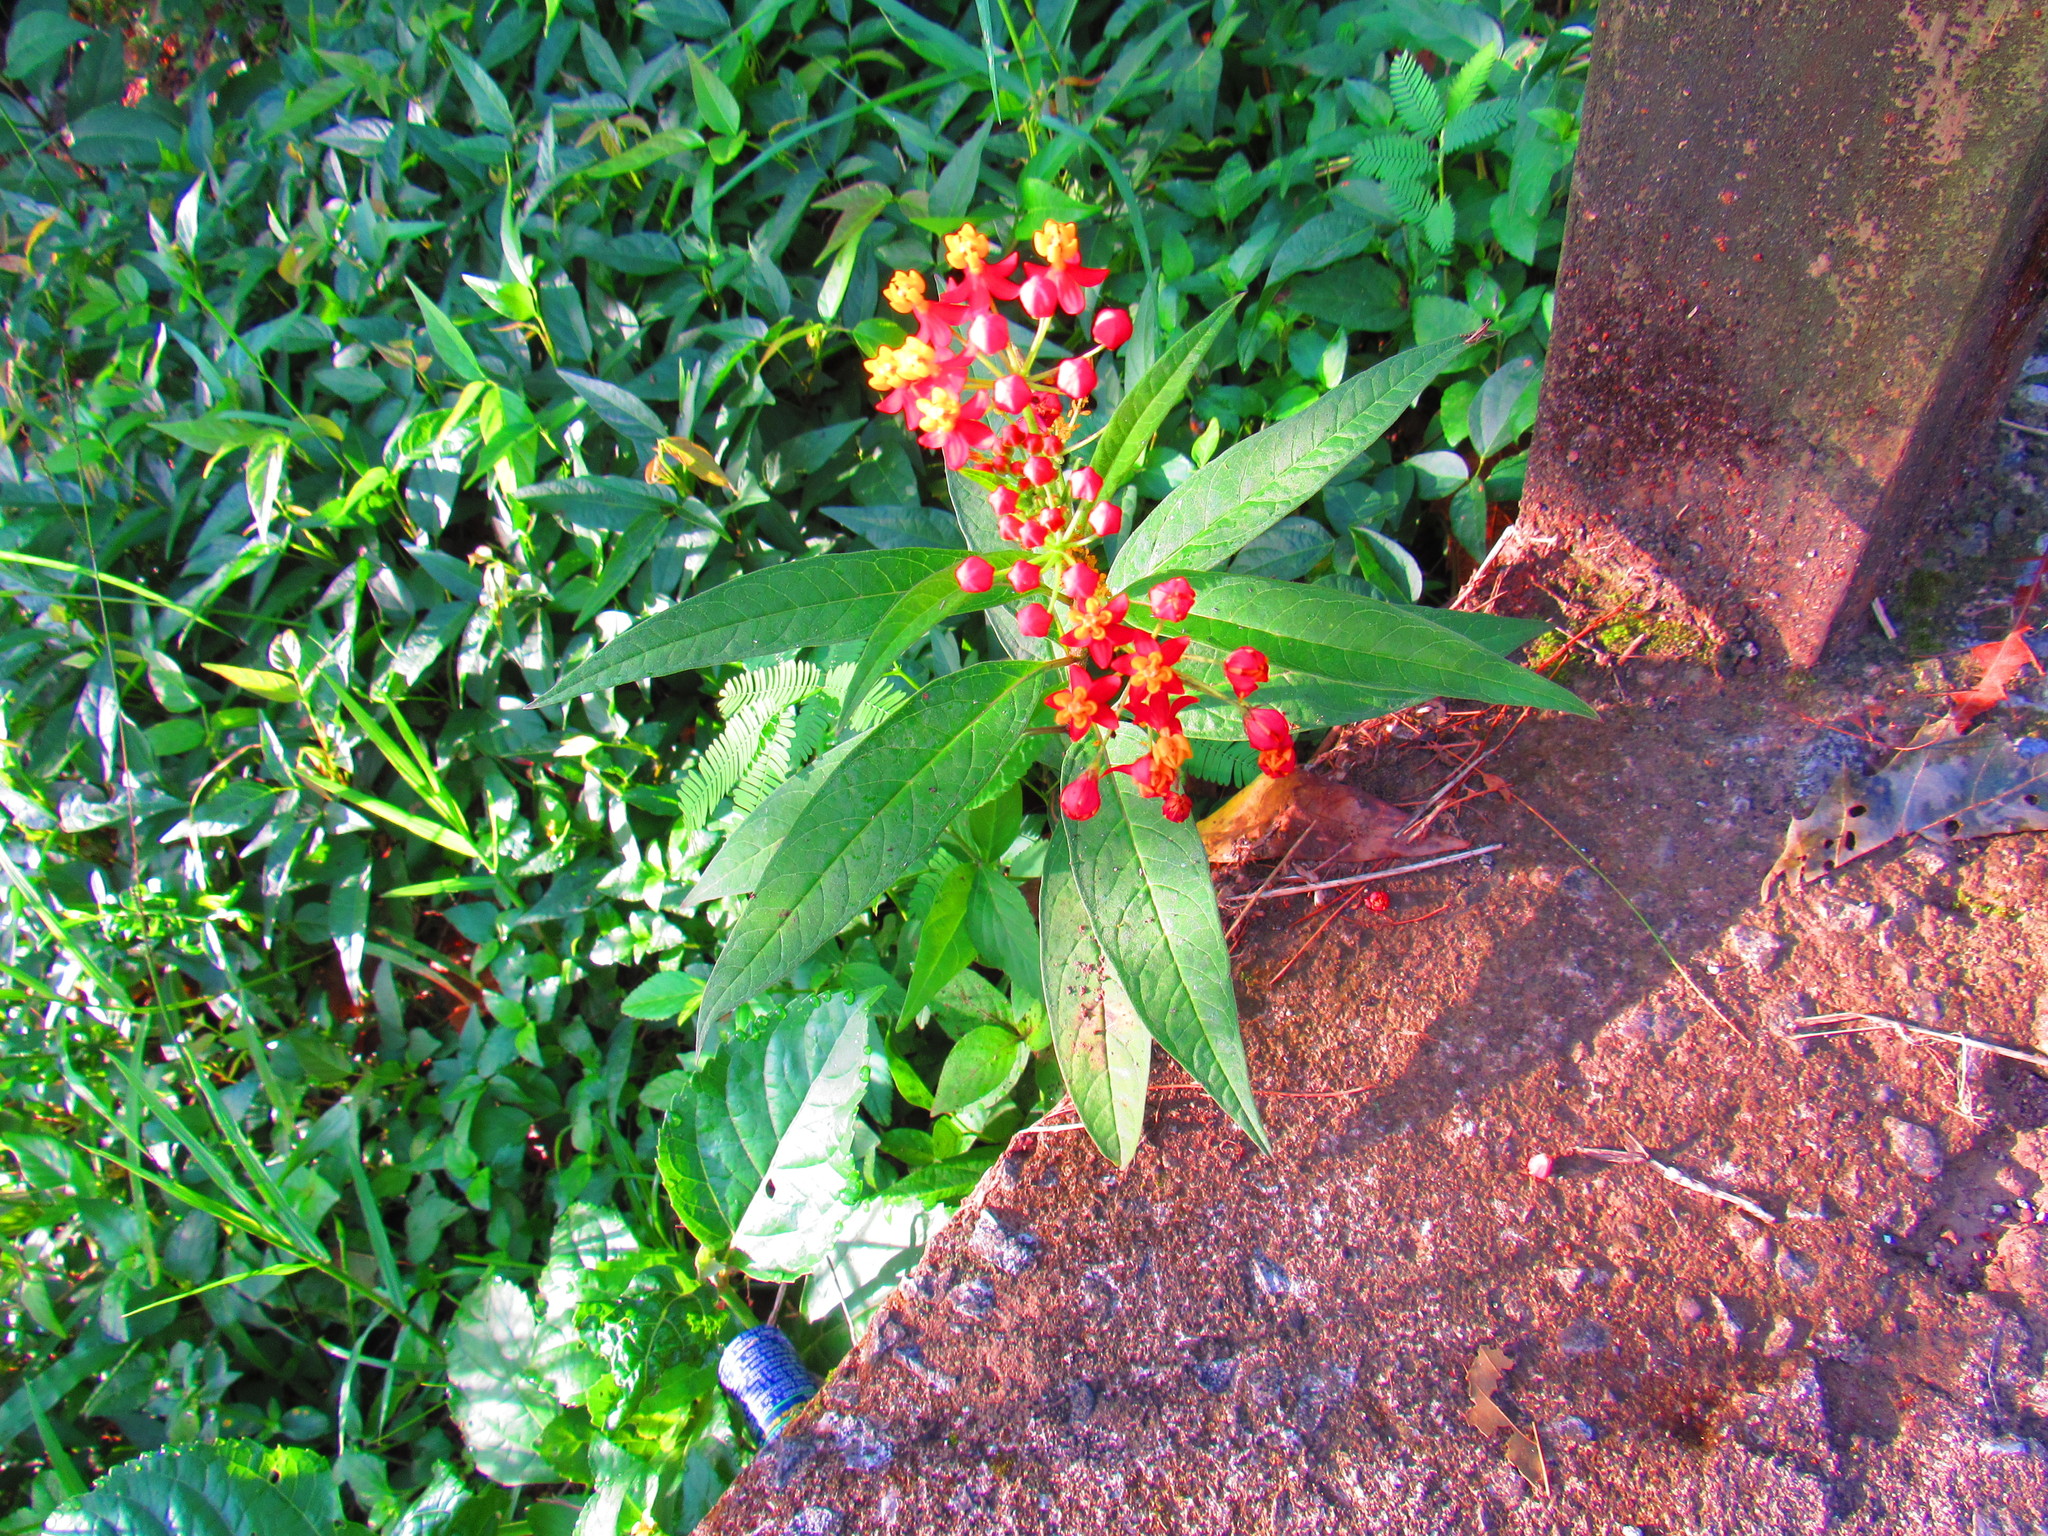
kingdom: Plantae
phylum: Tracheophyta
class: Magnoliopsida
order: Gentianales
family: Apocynaceae
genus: Asclepias
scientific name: Asclepias curassavica
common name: Bloodflower
